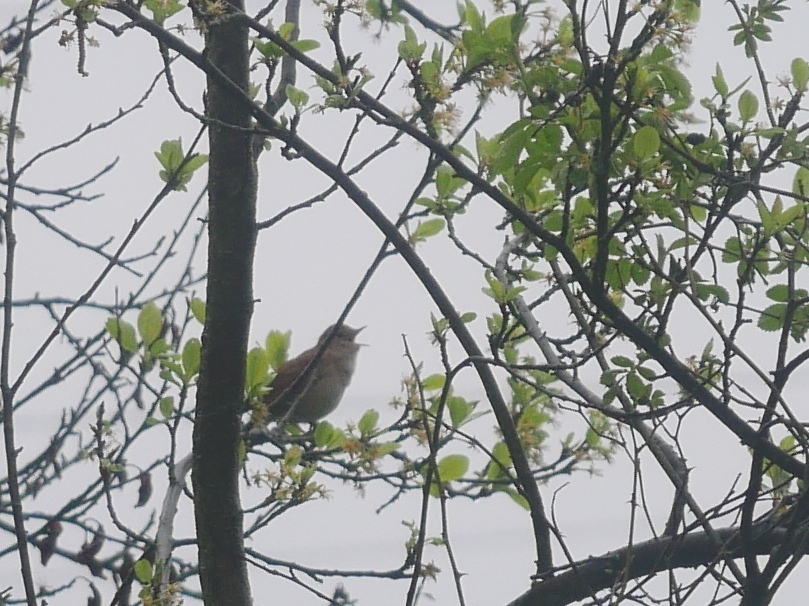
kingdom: Animalia
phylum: Chordata
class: Aves
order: Passeriformes
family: Muscicapidae
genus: Luscinia
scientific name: Luscinia megarhynchos
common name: Common nightingale
